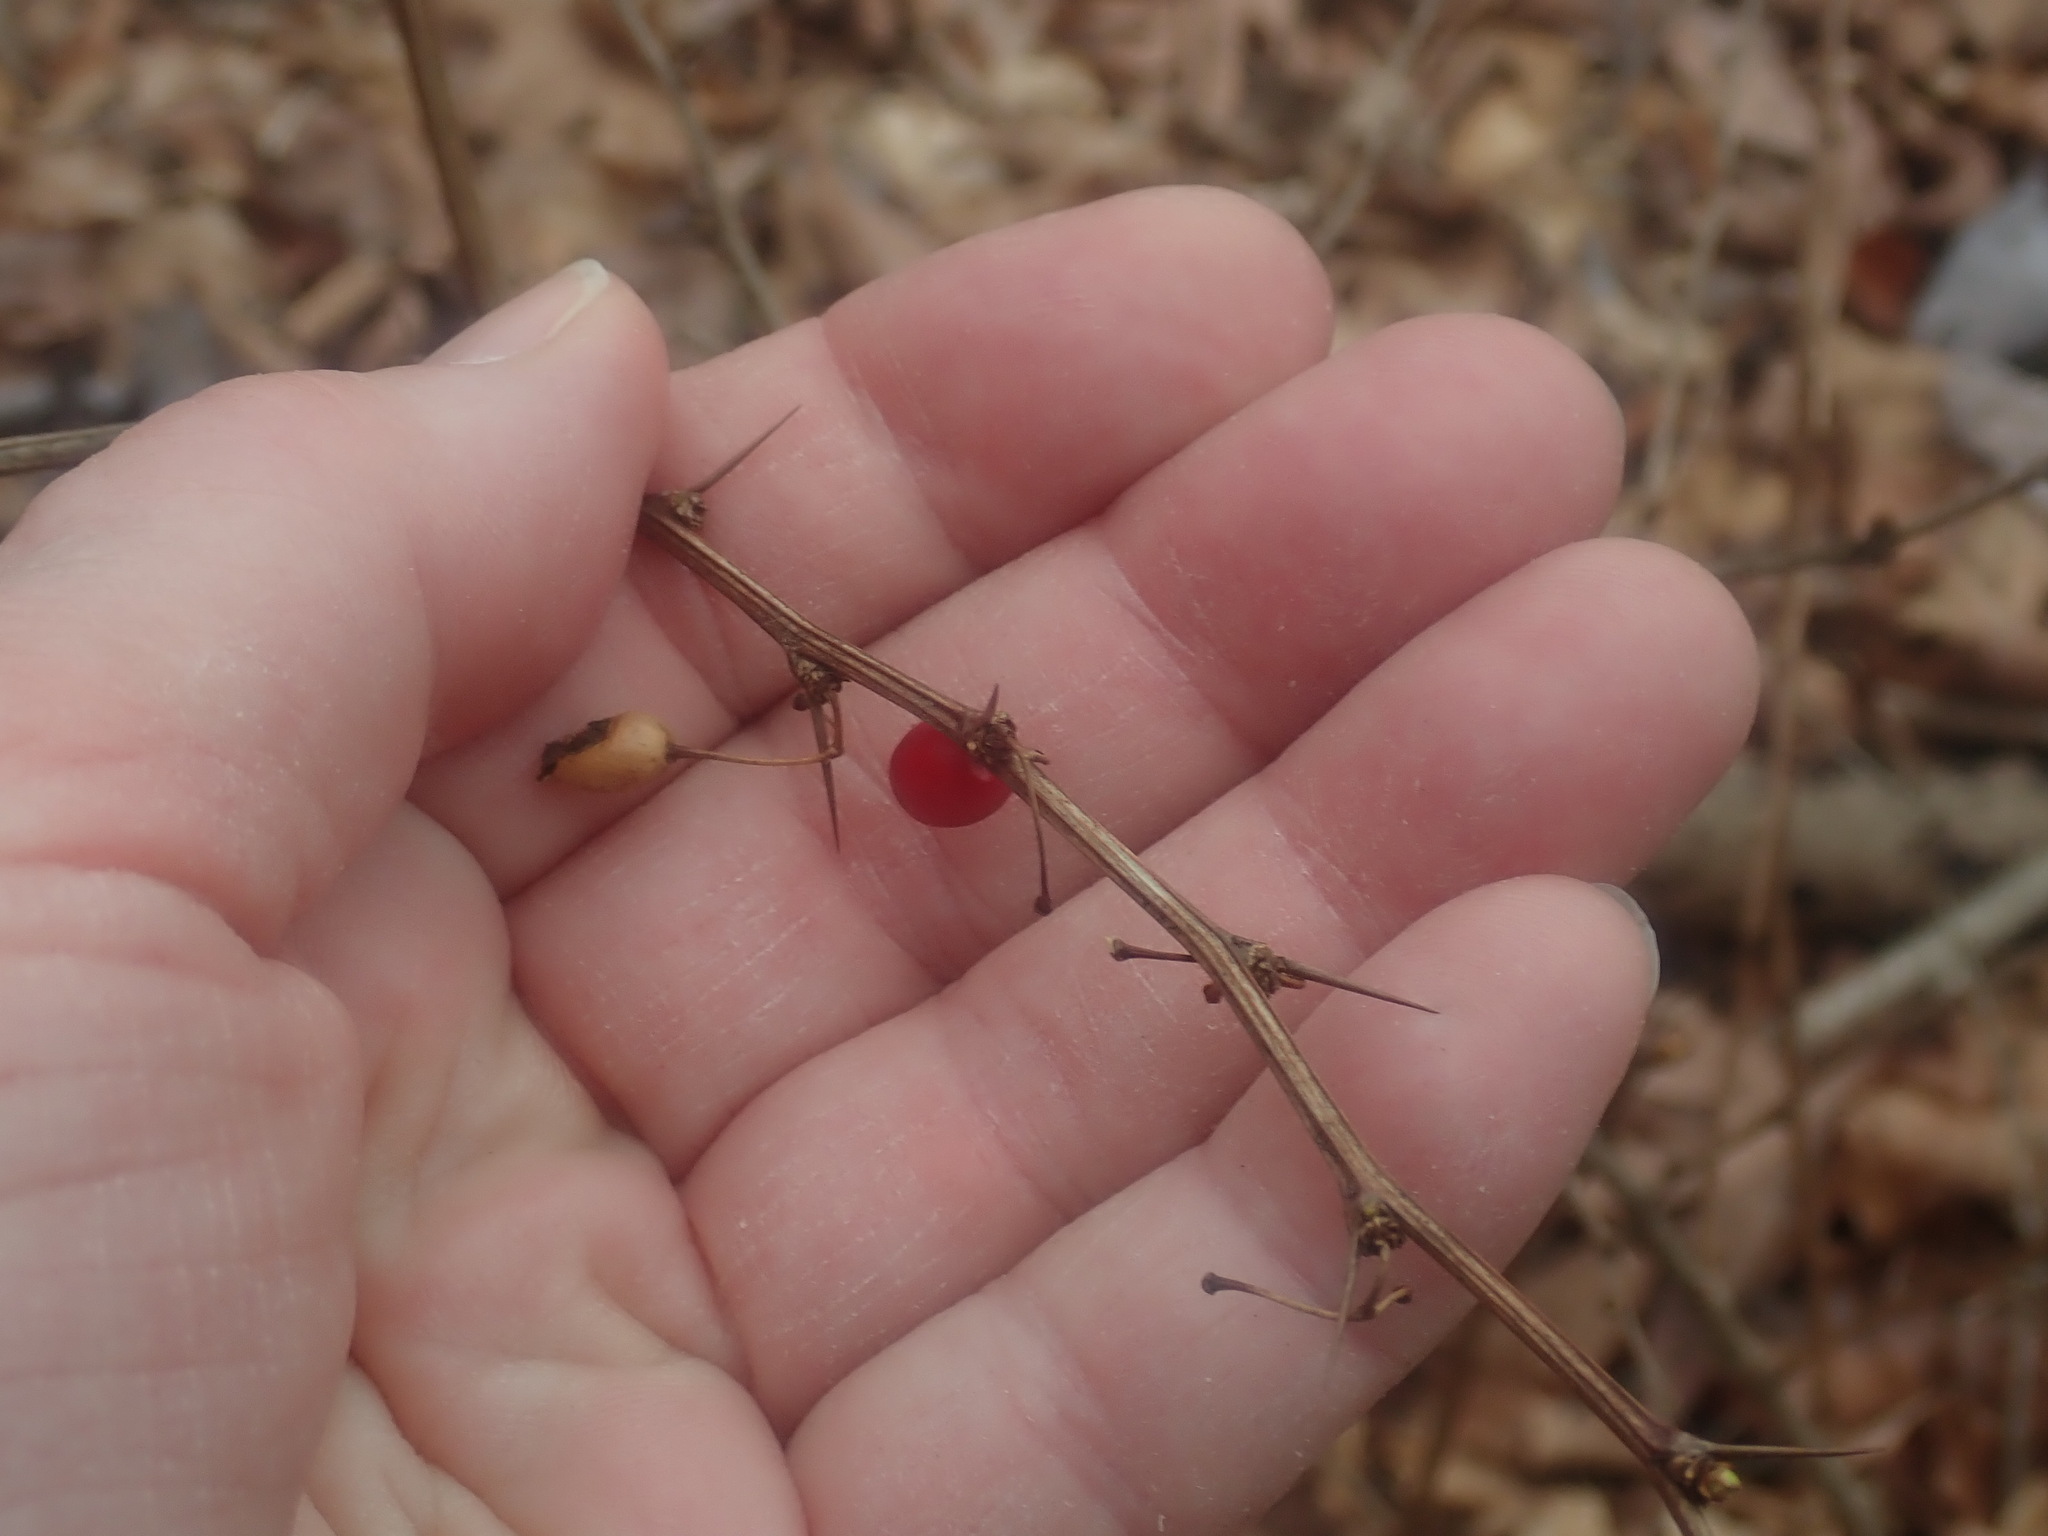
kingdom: Plantae
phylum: Tracheophyta
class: Magnoliopsida
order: Ranunculales
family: Berberidaceae
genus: Berberis
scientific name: Berberis thunbergii
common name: Japanese barberry
